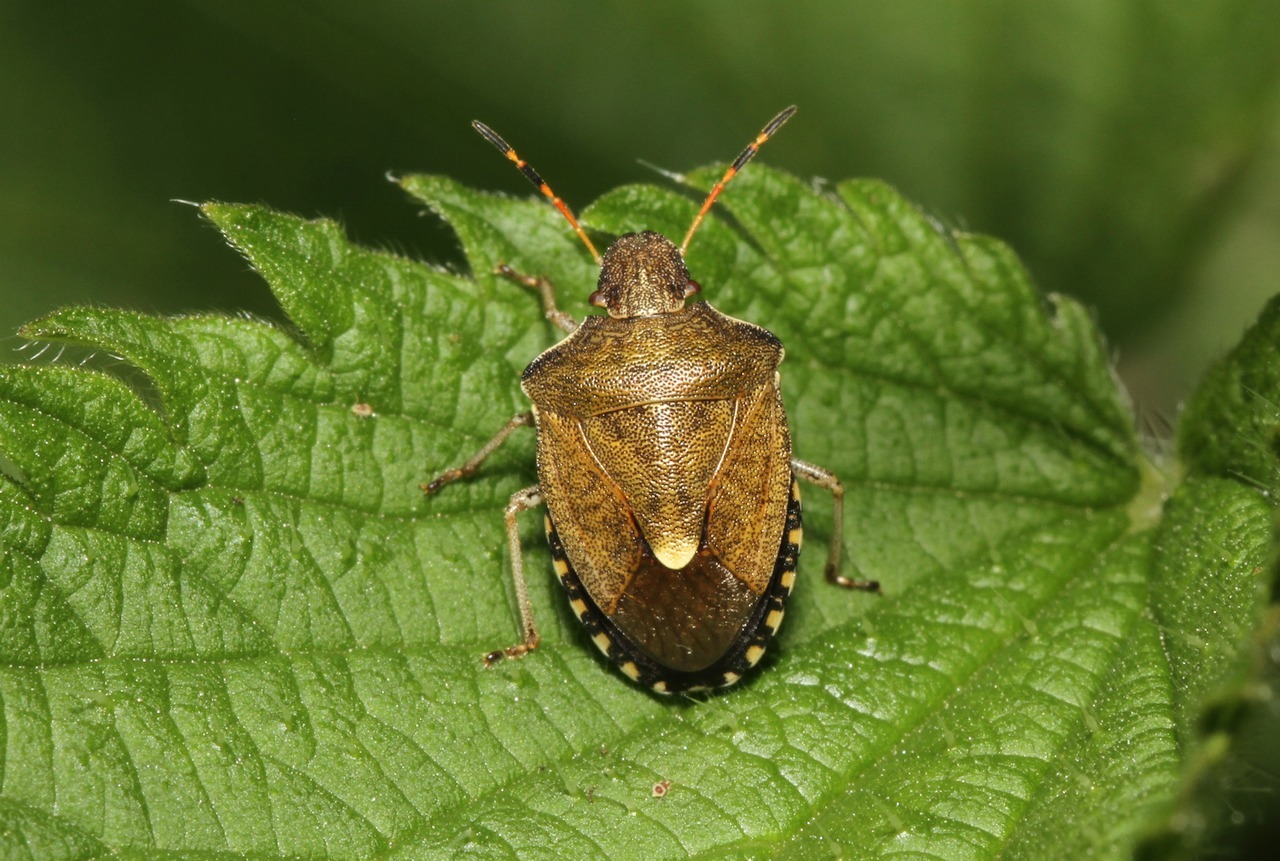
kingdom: Animalia
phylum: Arthropoda
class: Insecta
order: Hemiptera
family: Pentatomidae
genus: Holcostethus
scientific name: Holcostethus strictus
